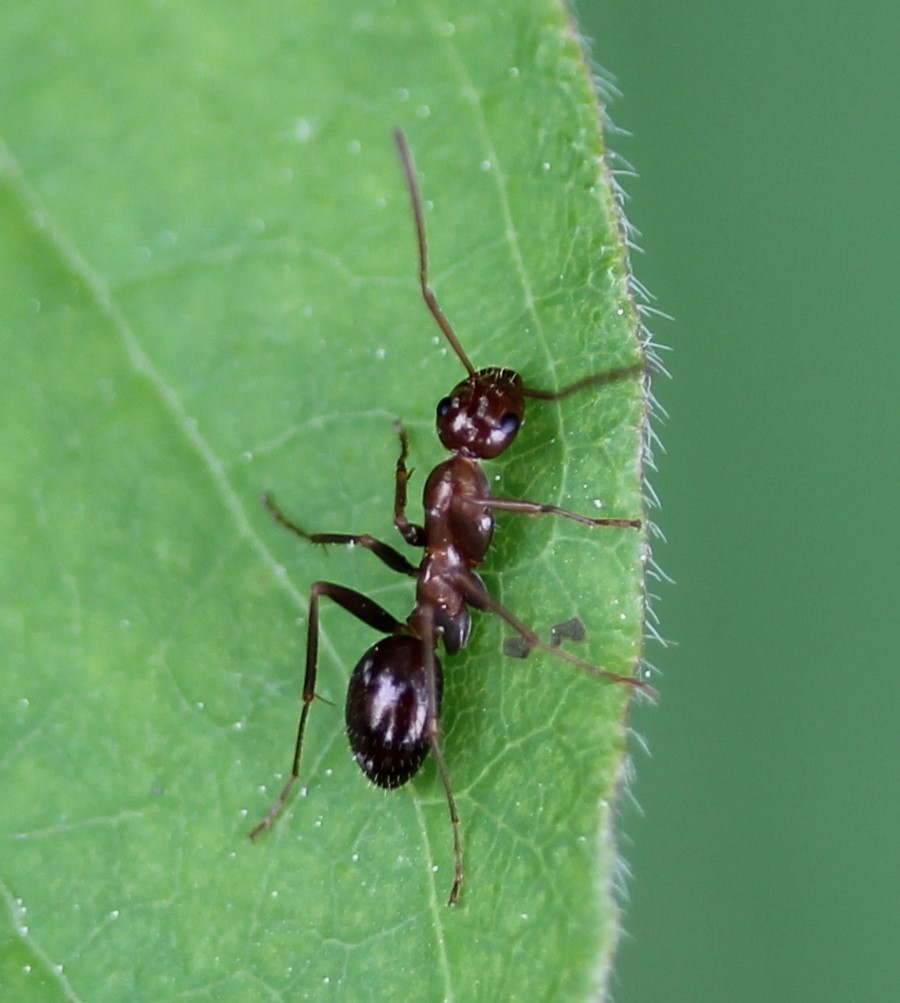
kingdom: Animalia
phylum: Arthropoda
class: Insecta
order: Hymenoptera
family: Formicidae
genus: Formica
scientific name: Formica pallidefulva
